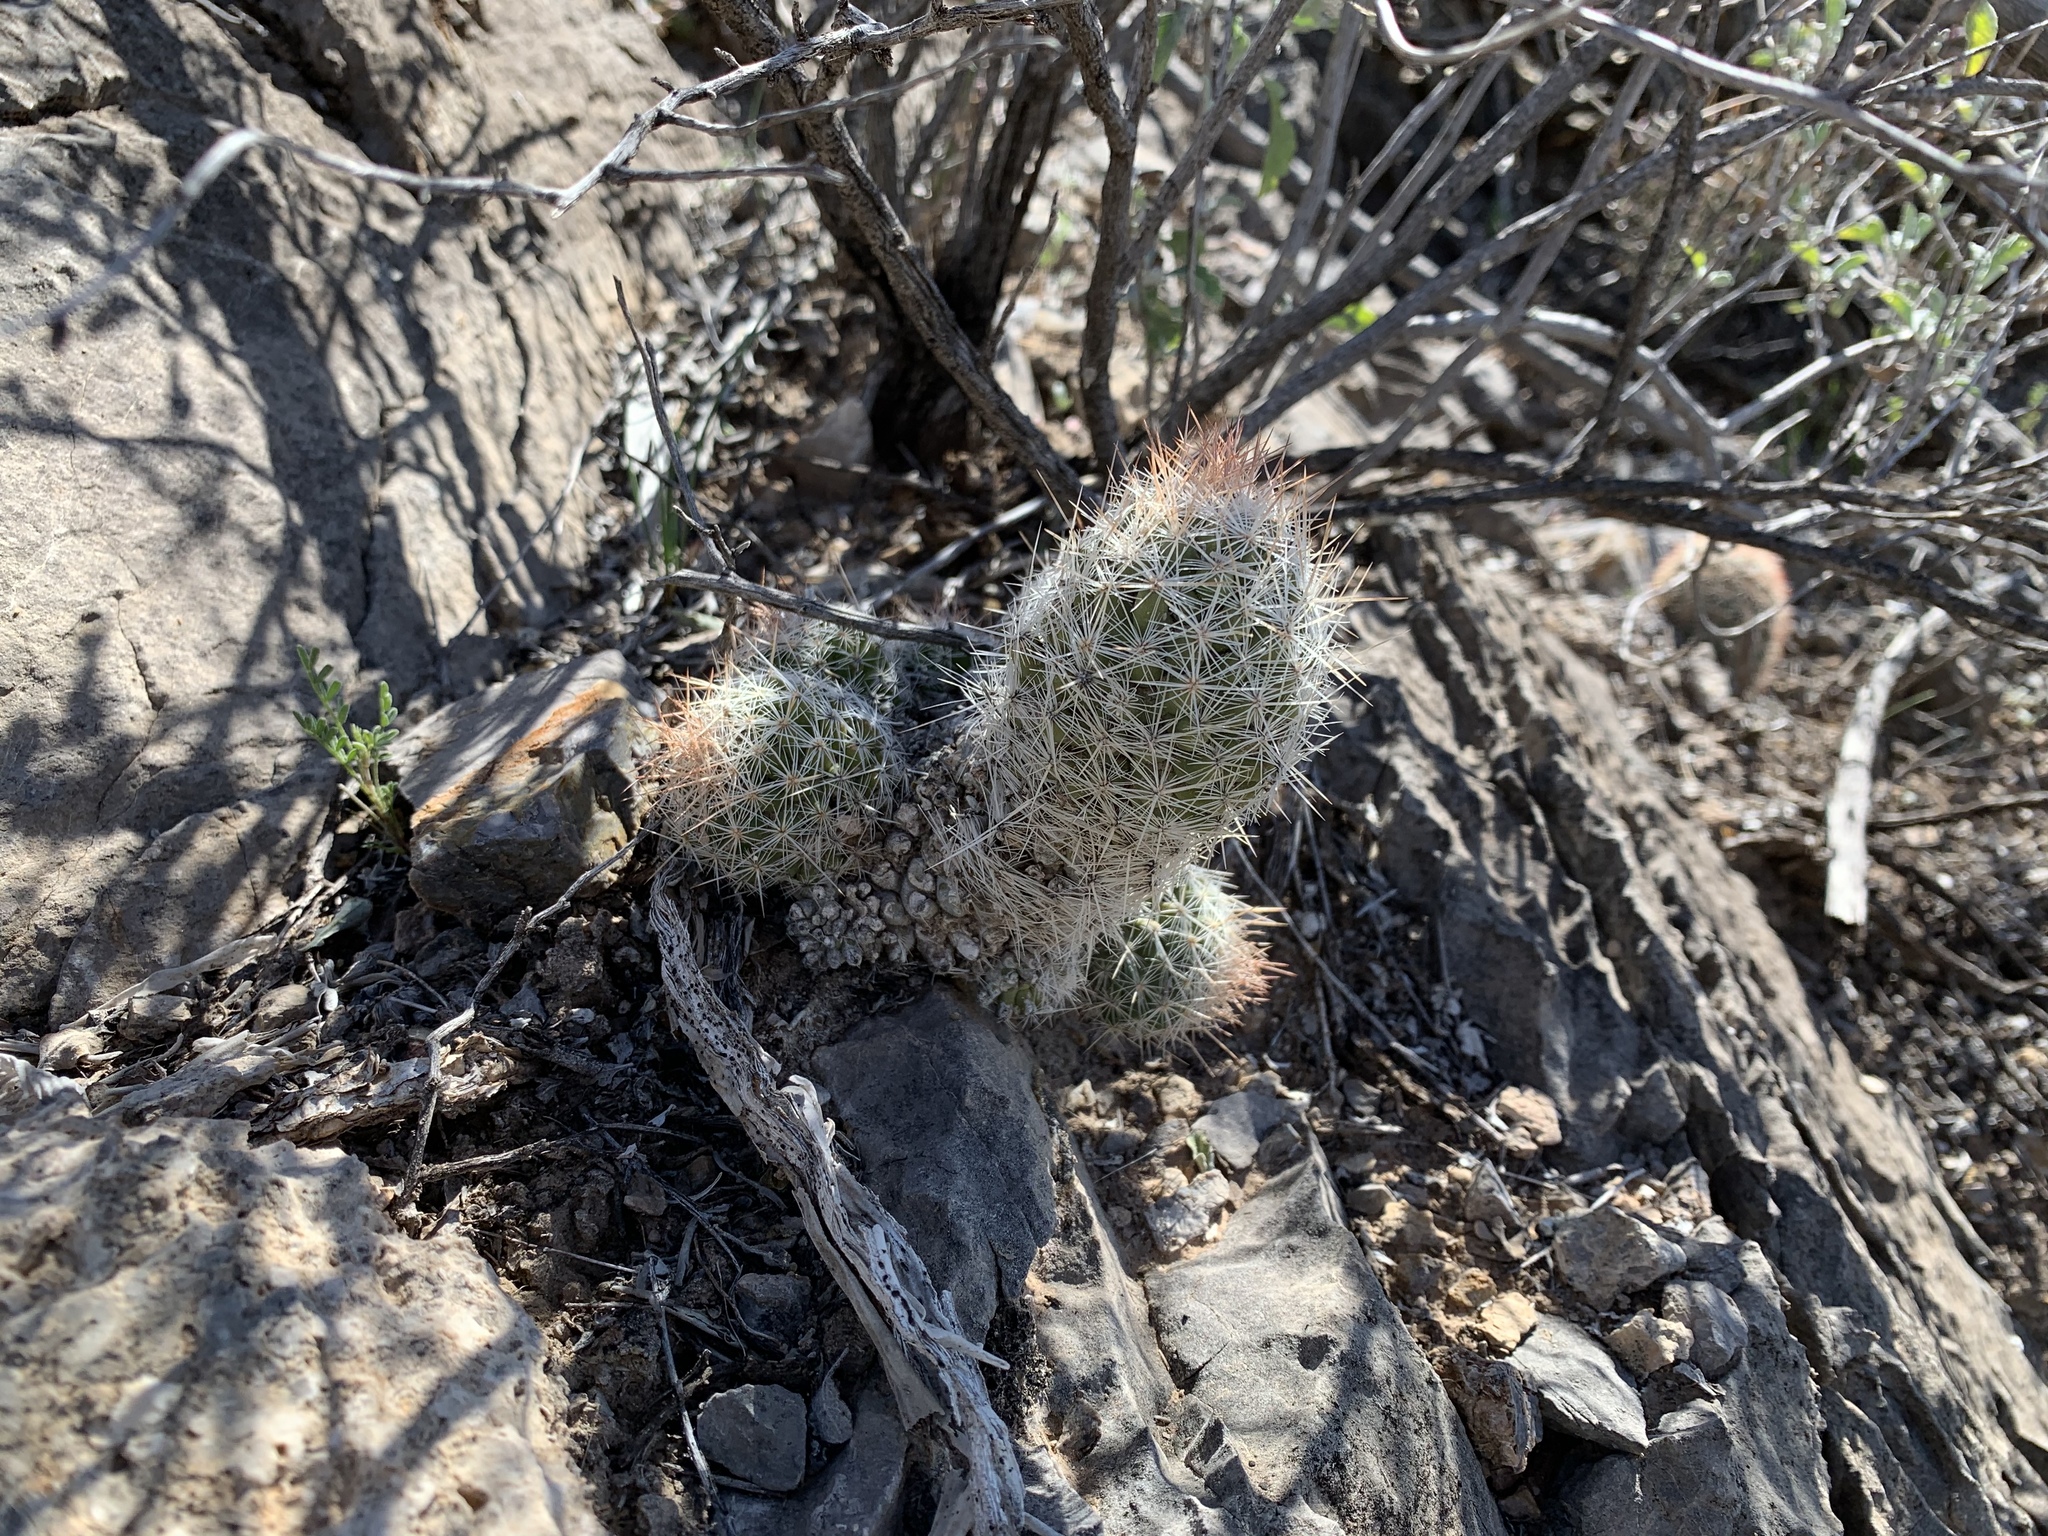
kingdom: Plantae
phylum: Tracheophyta
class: Magnoliopsida
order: Caryophyllales
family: Cactaceae
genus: Pelecyphora
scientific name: Pelecyphora tuberculosa
